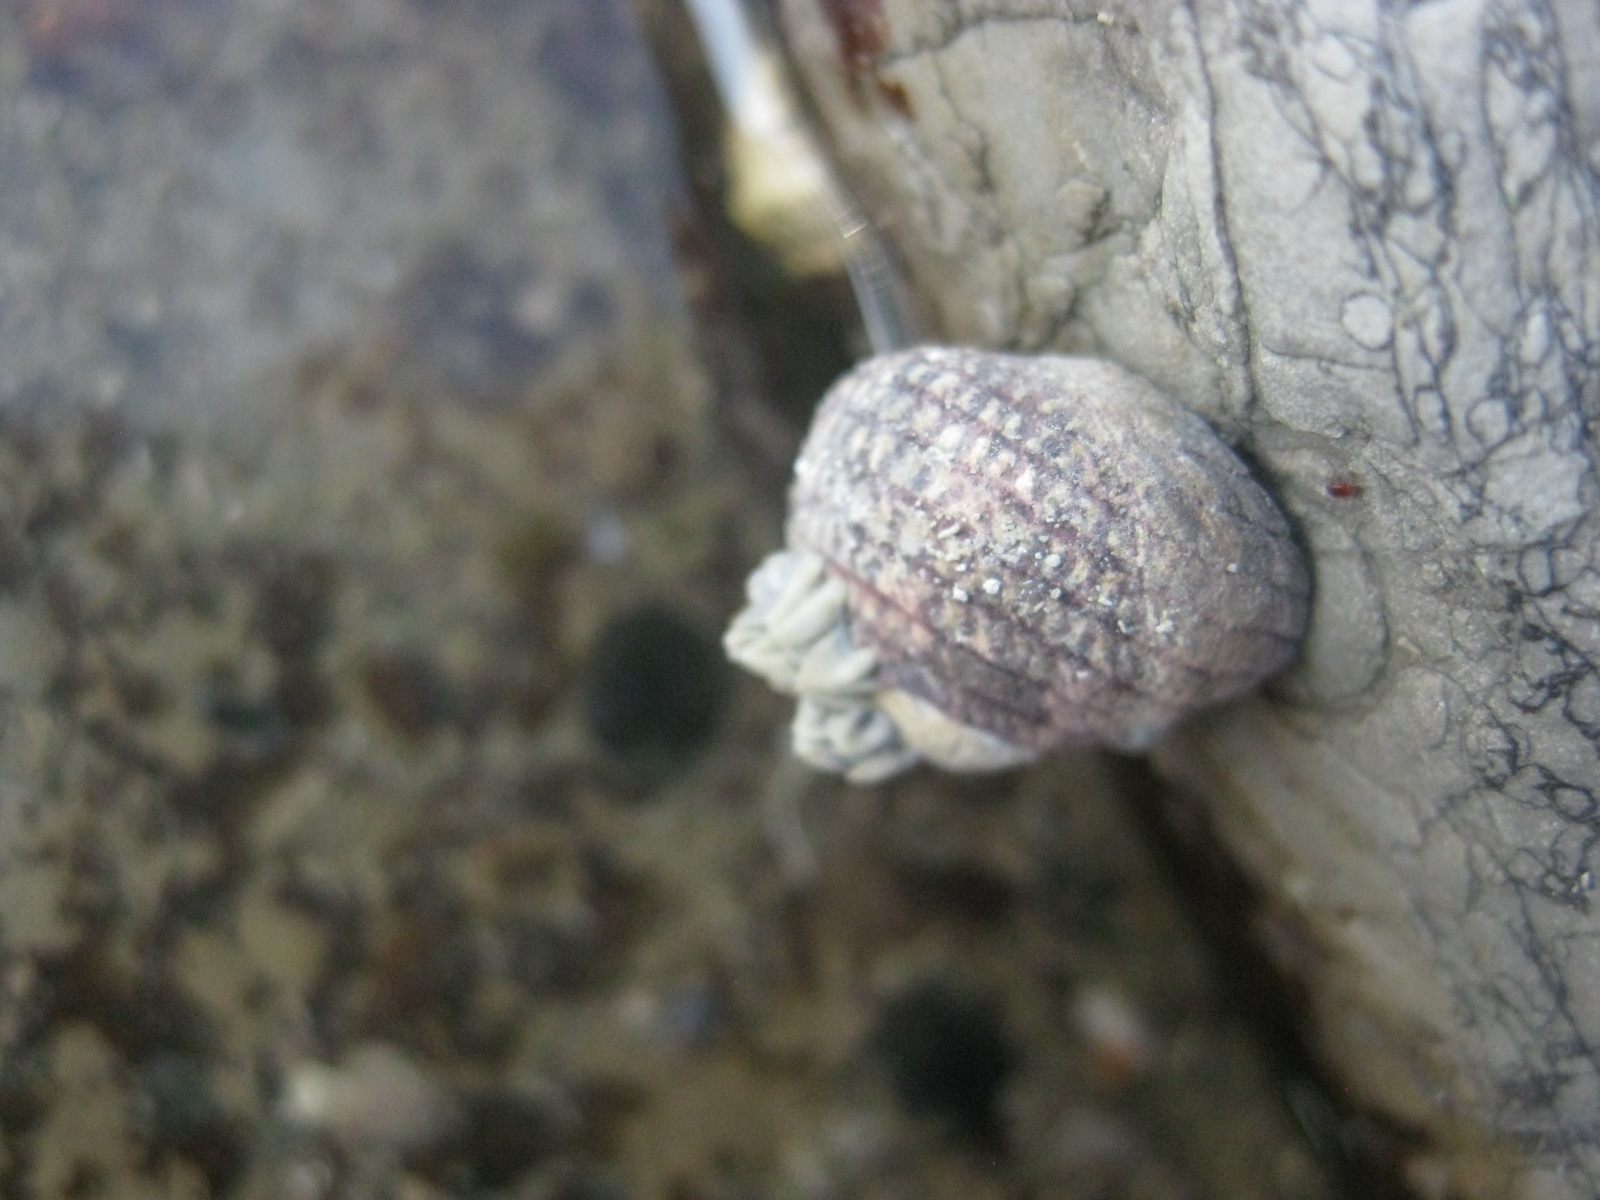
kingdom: Animalia
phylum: Mollusca
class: Gastropoda
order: Trochida
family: Trochidae
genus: Diloma
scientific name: Diloma aethiops
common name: Scorched monodont
